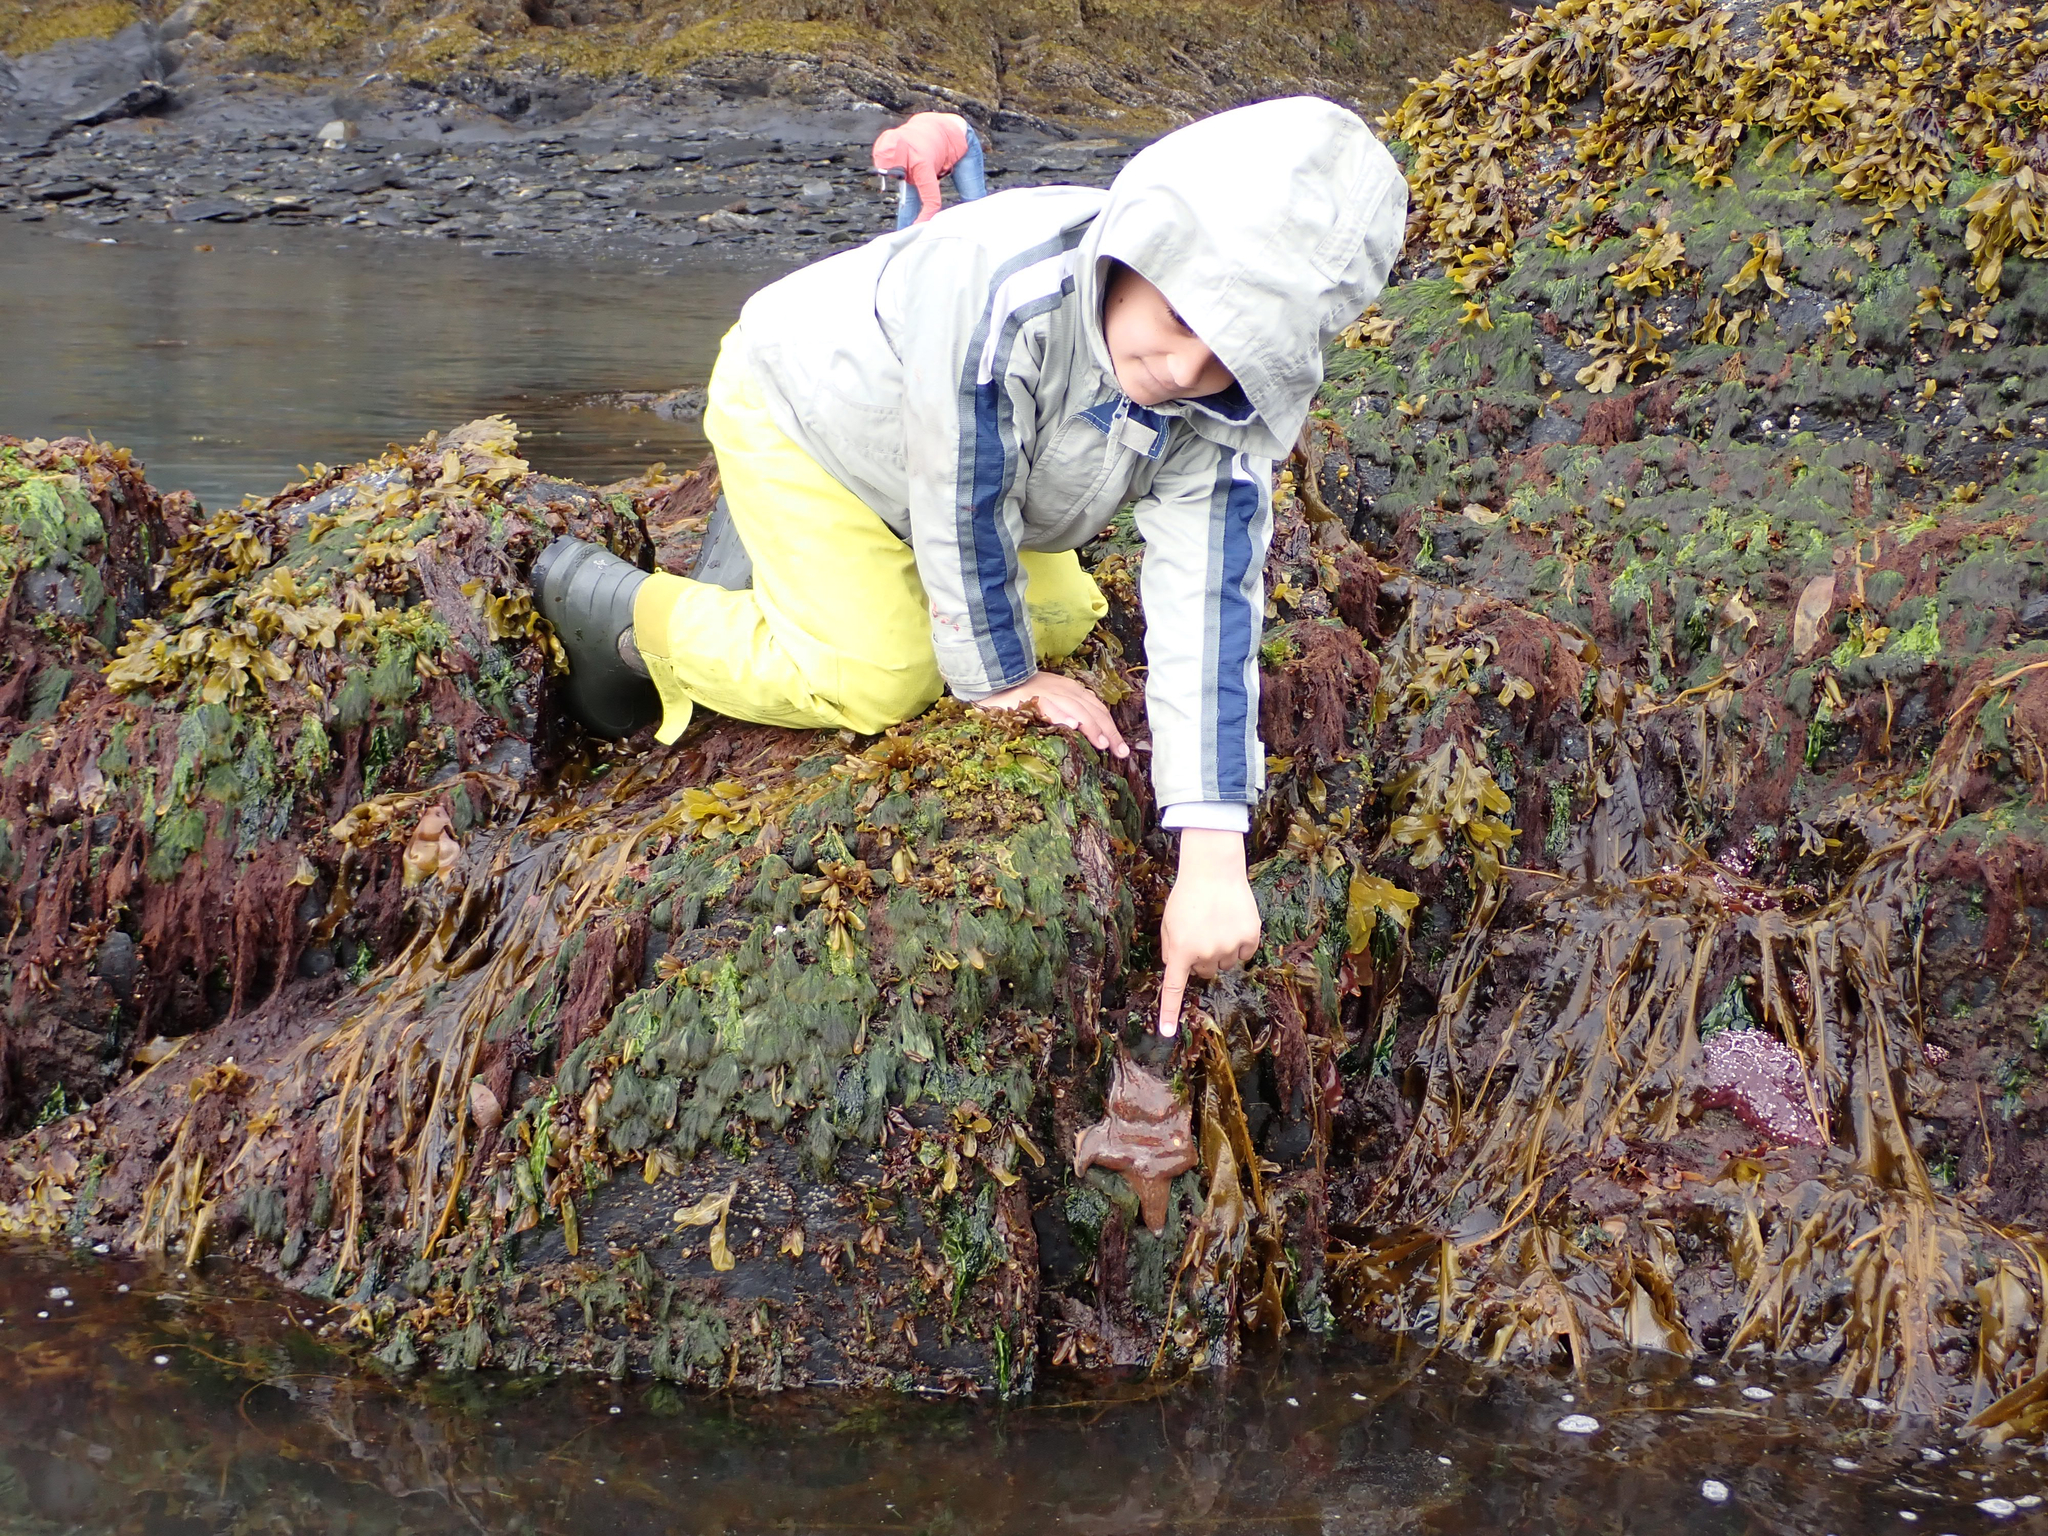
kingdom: Animalia
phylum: Echinodermata
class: Asteroidea
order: Valvatida
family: Asteropseidae
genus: Dermasterias
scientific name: Dermasterias imbricata
